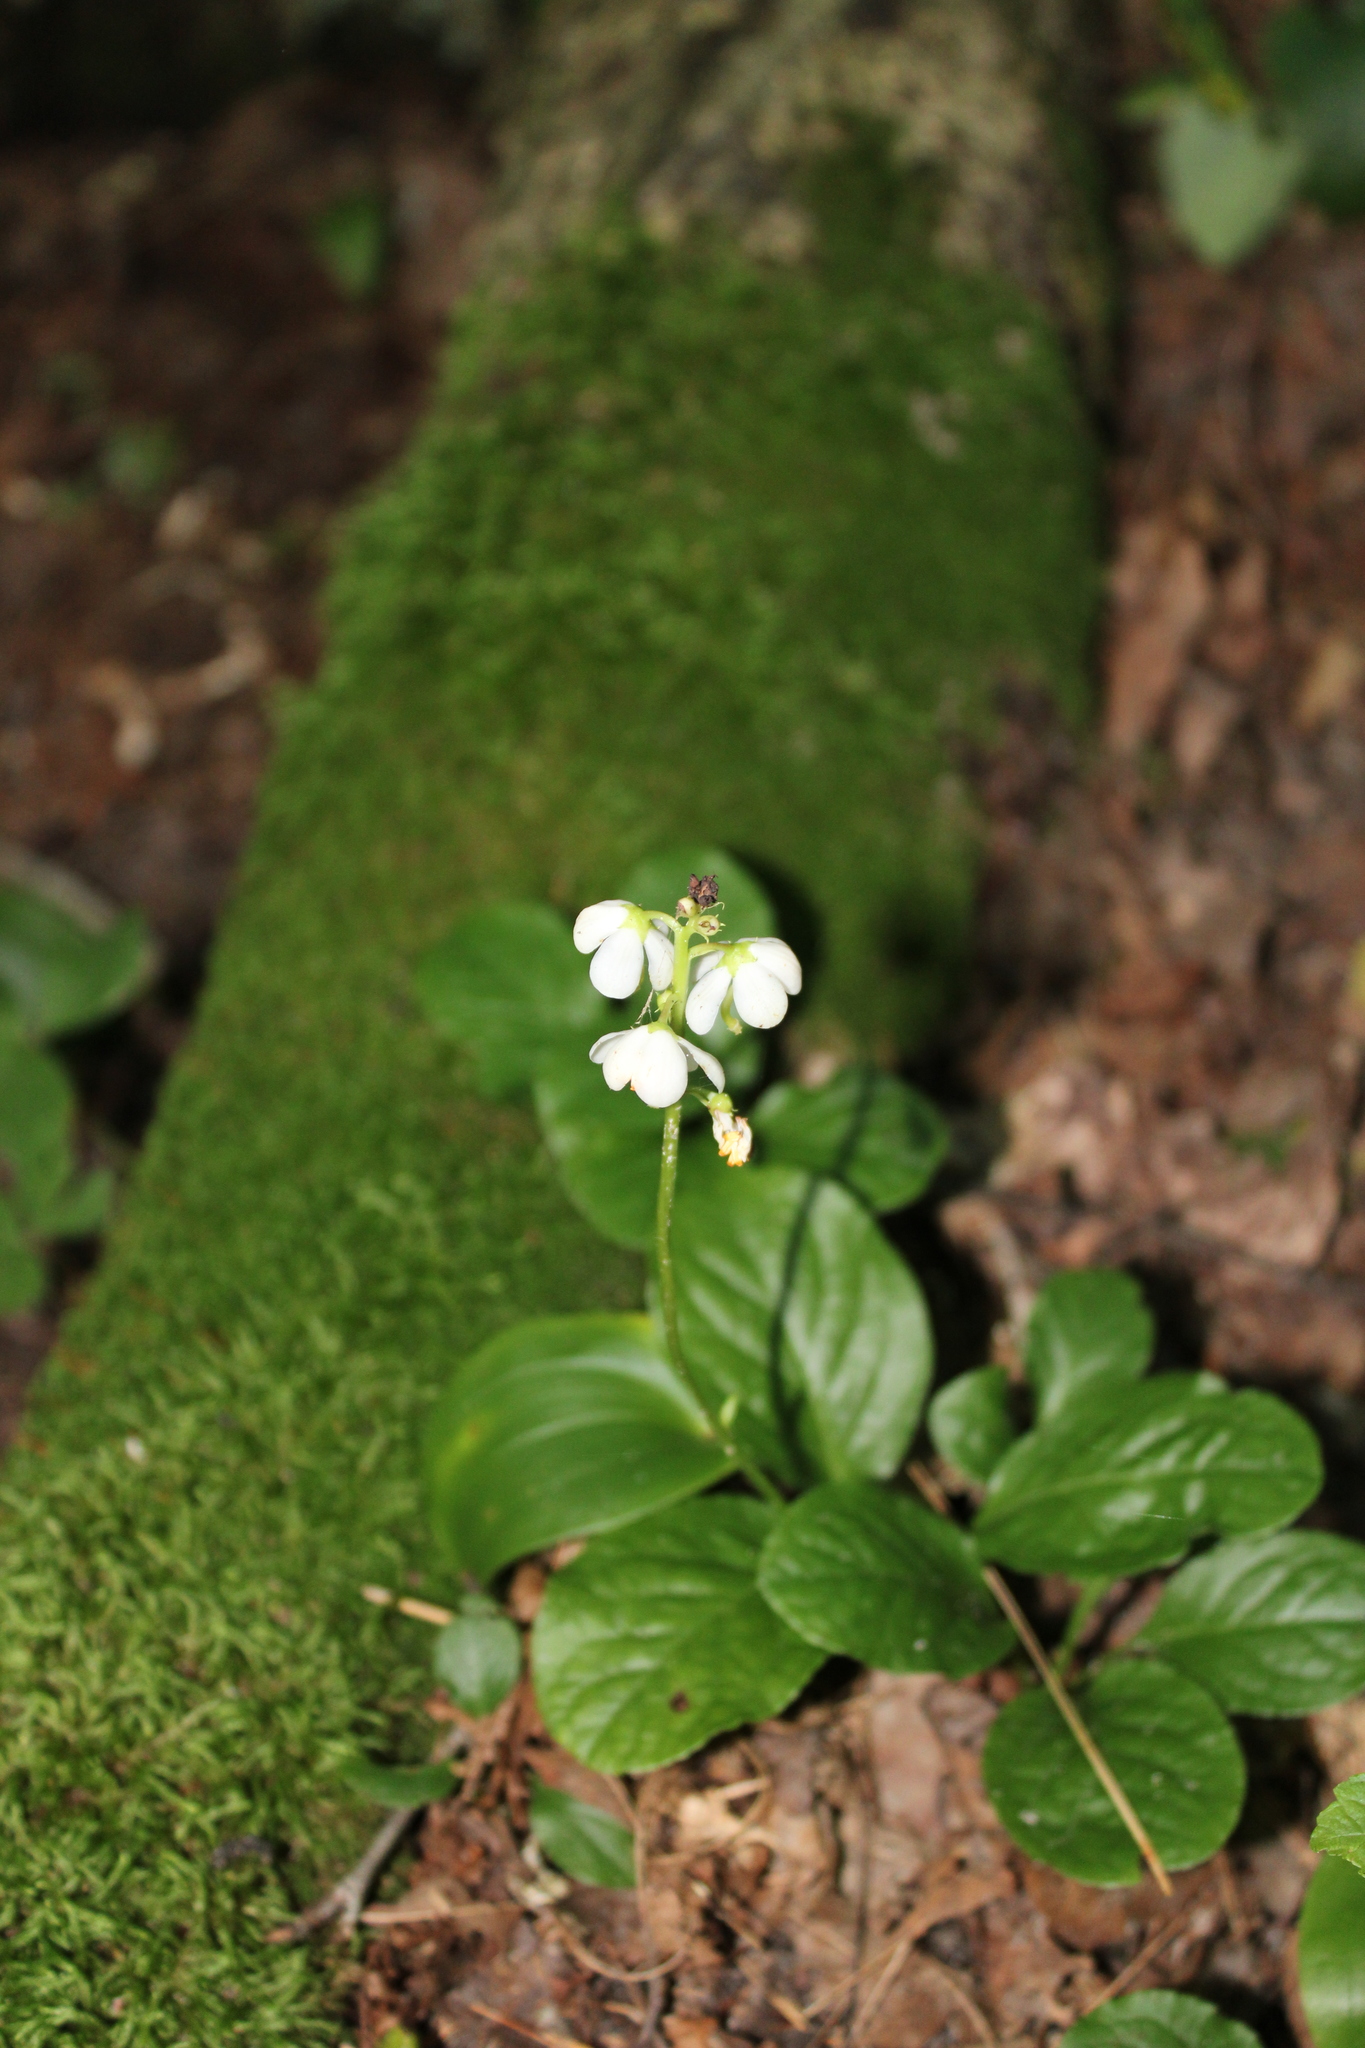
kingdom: Plantae
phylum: Tracheophyta
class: Magnoliopsida
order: Ericales
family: Ericaceae
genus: Pyrola
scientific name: Pyrola elliptica
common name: Shinleaf
